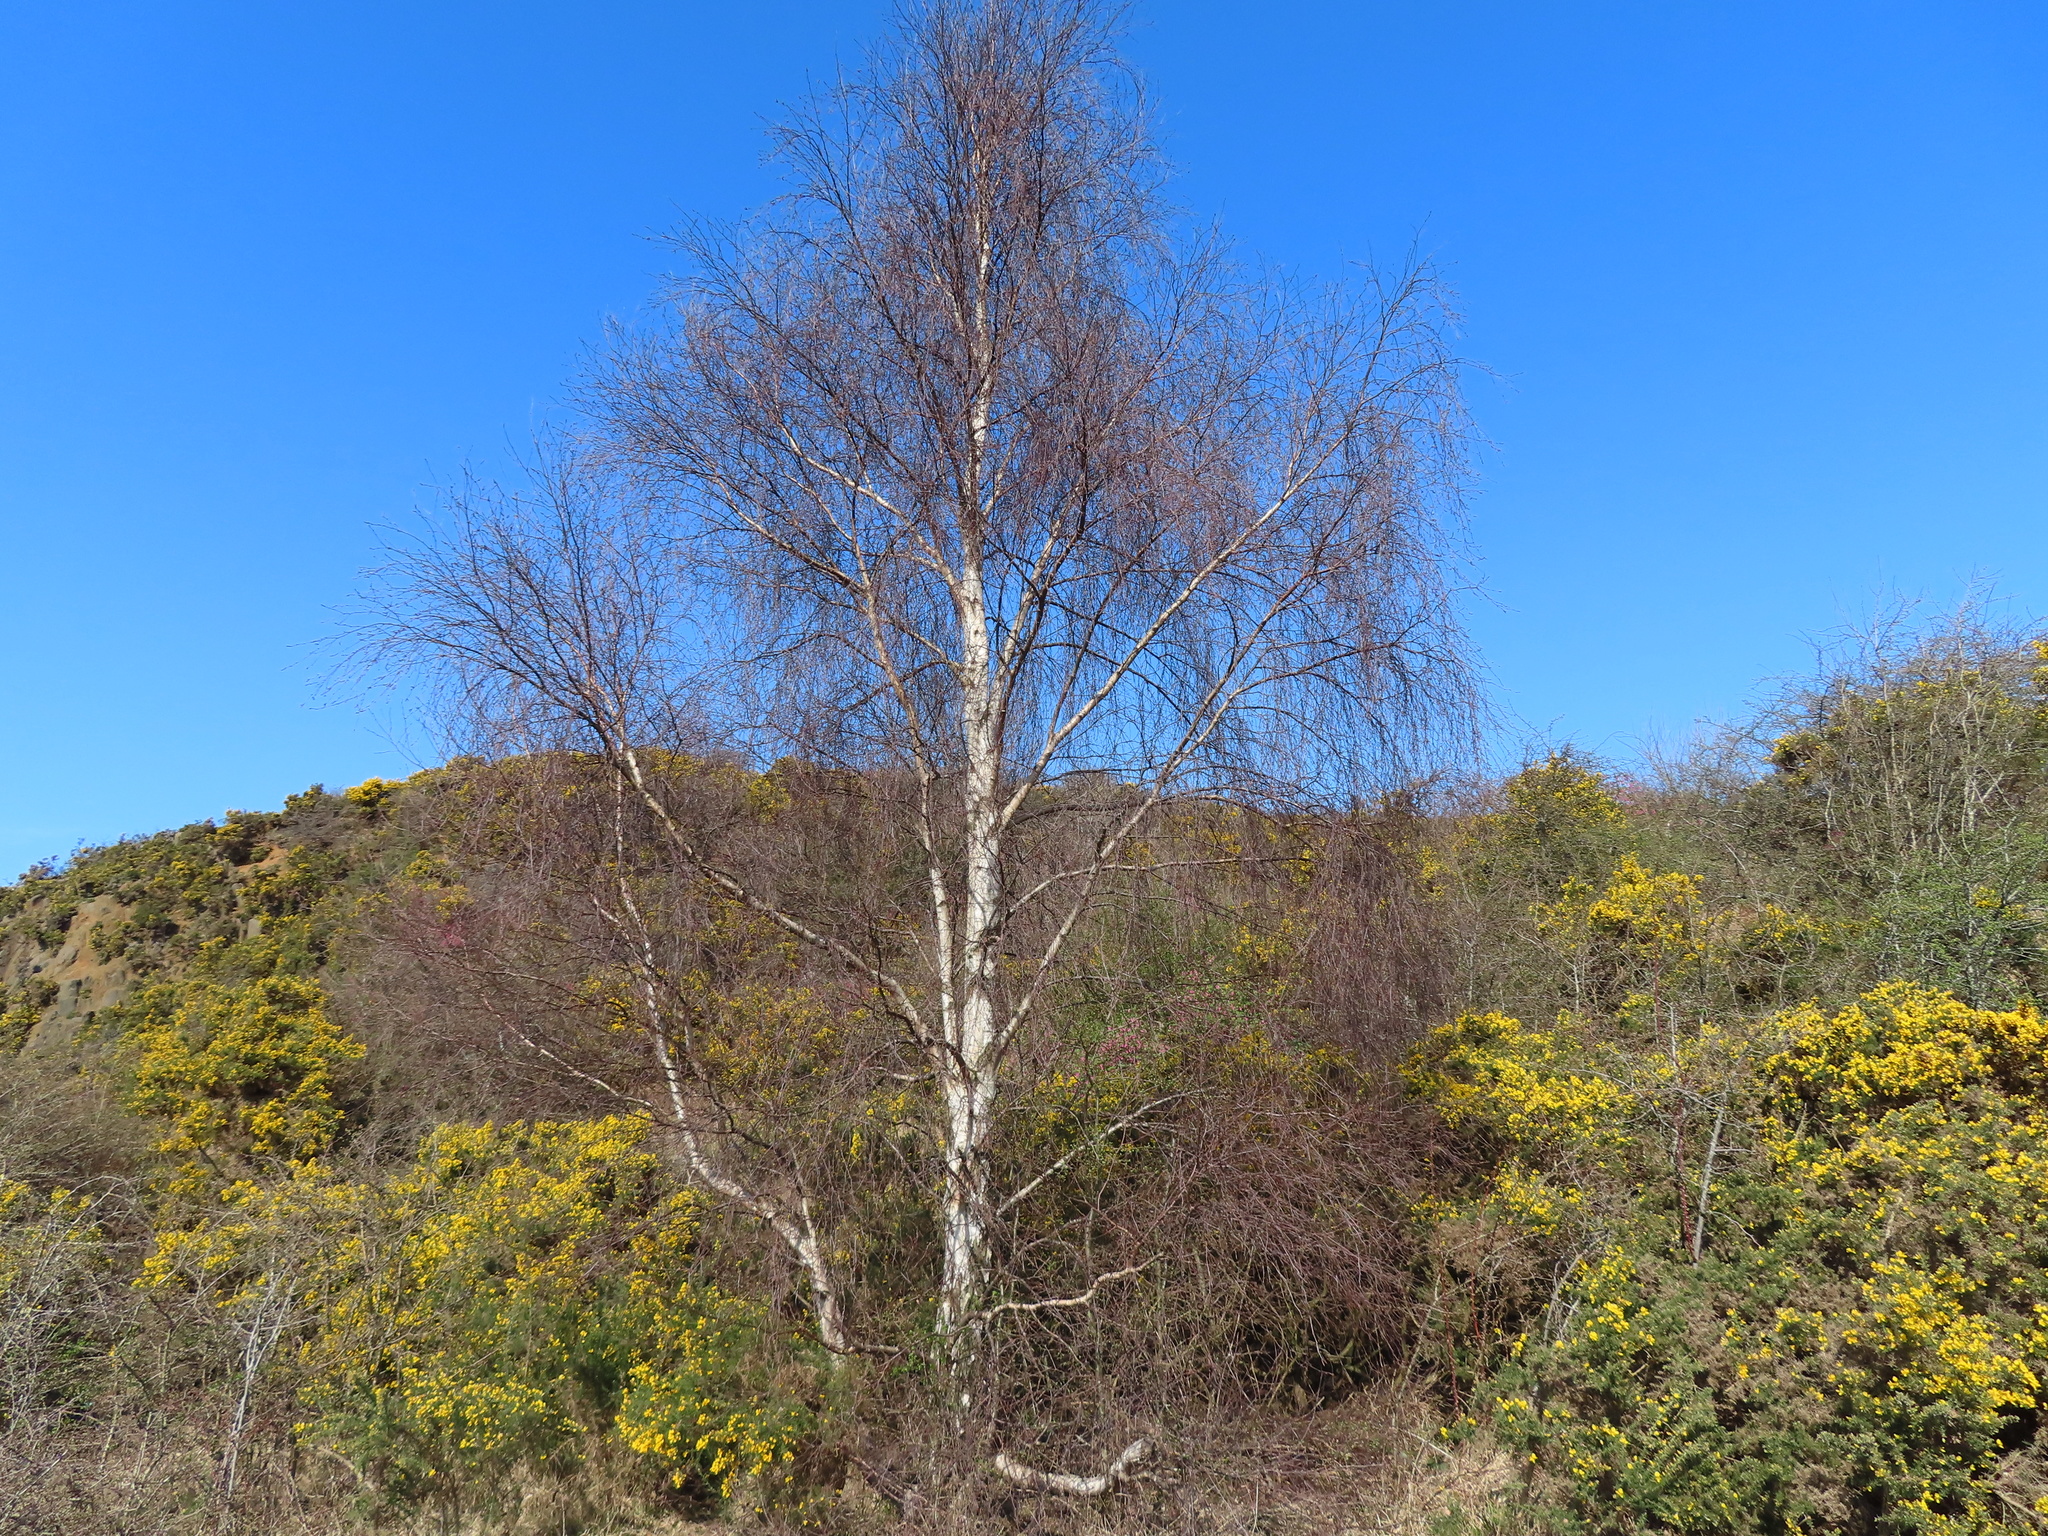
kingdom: Plantae
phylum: Tracheophyta
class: Magnoliopsida
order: Fagales
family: Betulaceae
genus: Betula
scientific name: Betula pendula
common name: Silver birch
